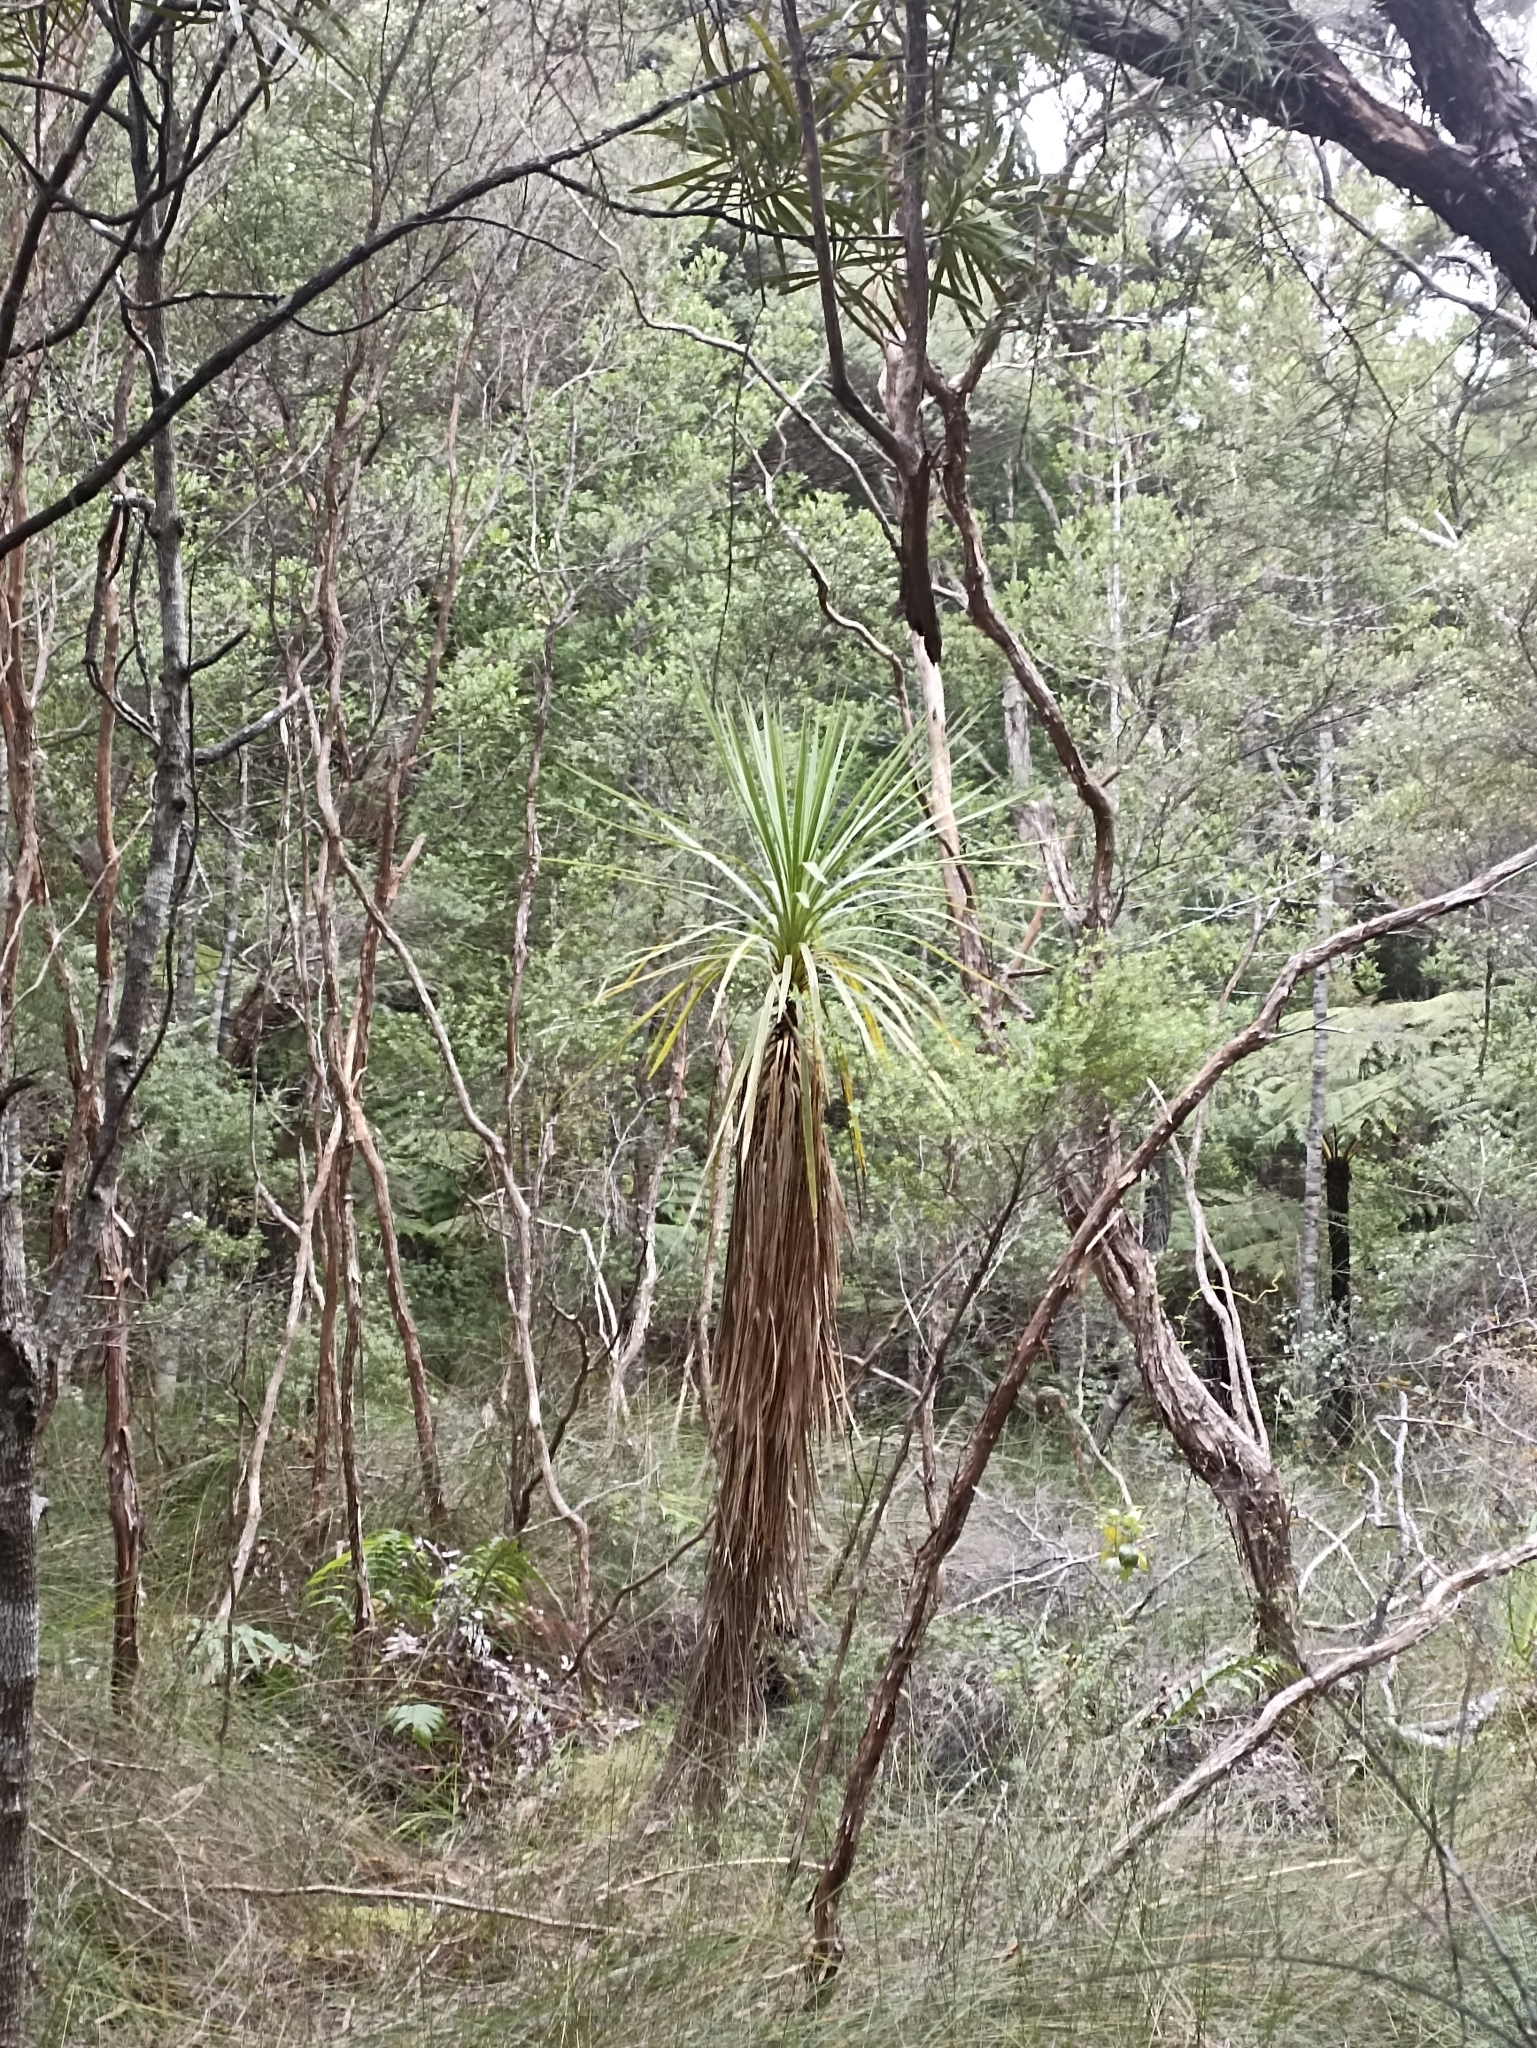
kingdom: Plantae
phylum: Tracheophyta
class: Liliopsida
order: Asparagales
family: Asparagaceae
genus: Cordyline
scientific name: Cordyline australis
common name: Cabbage-palm
